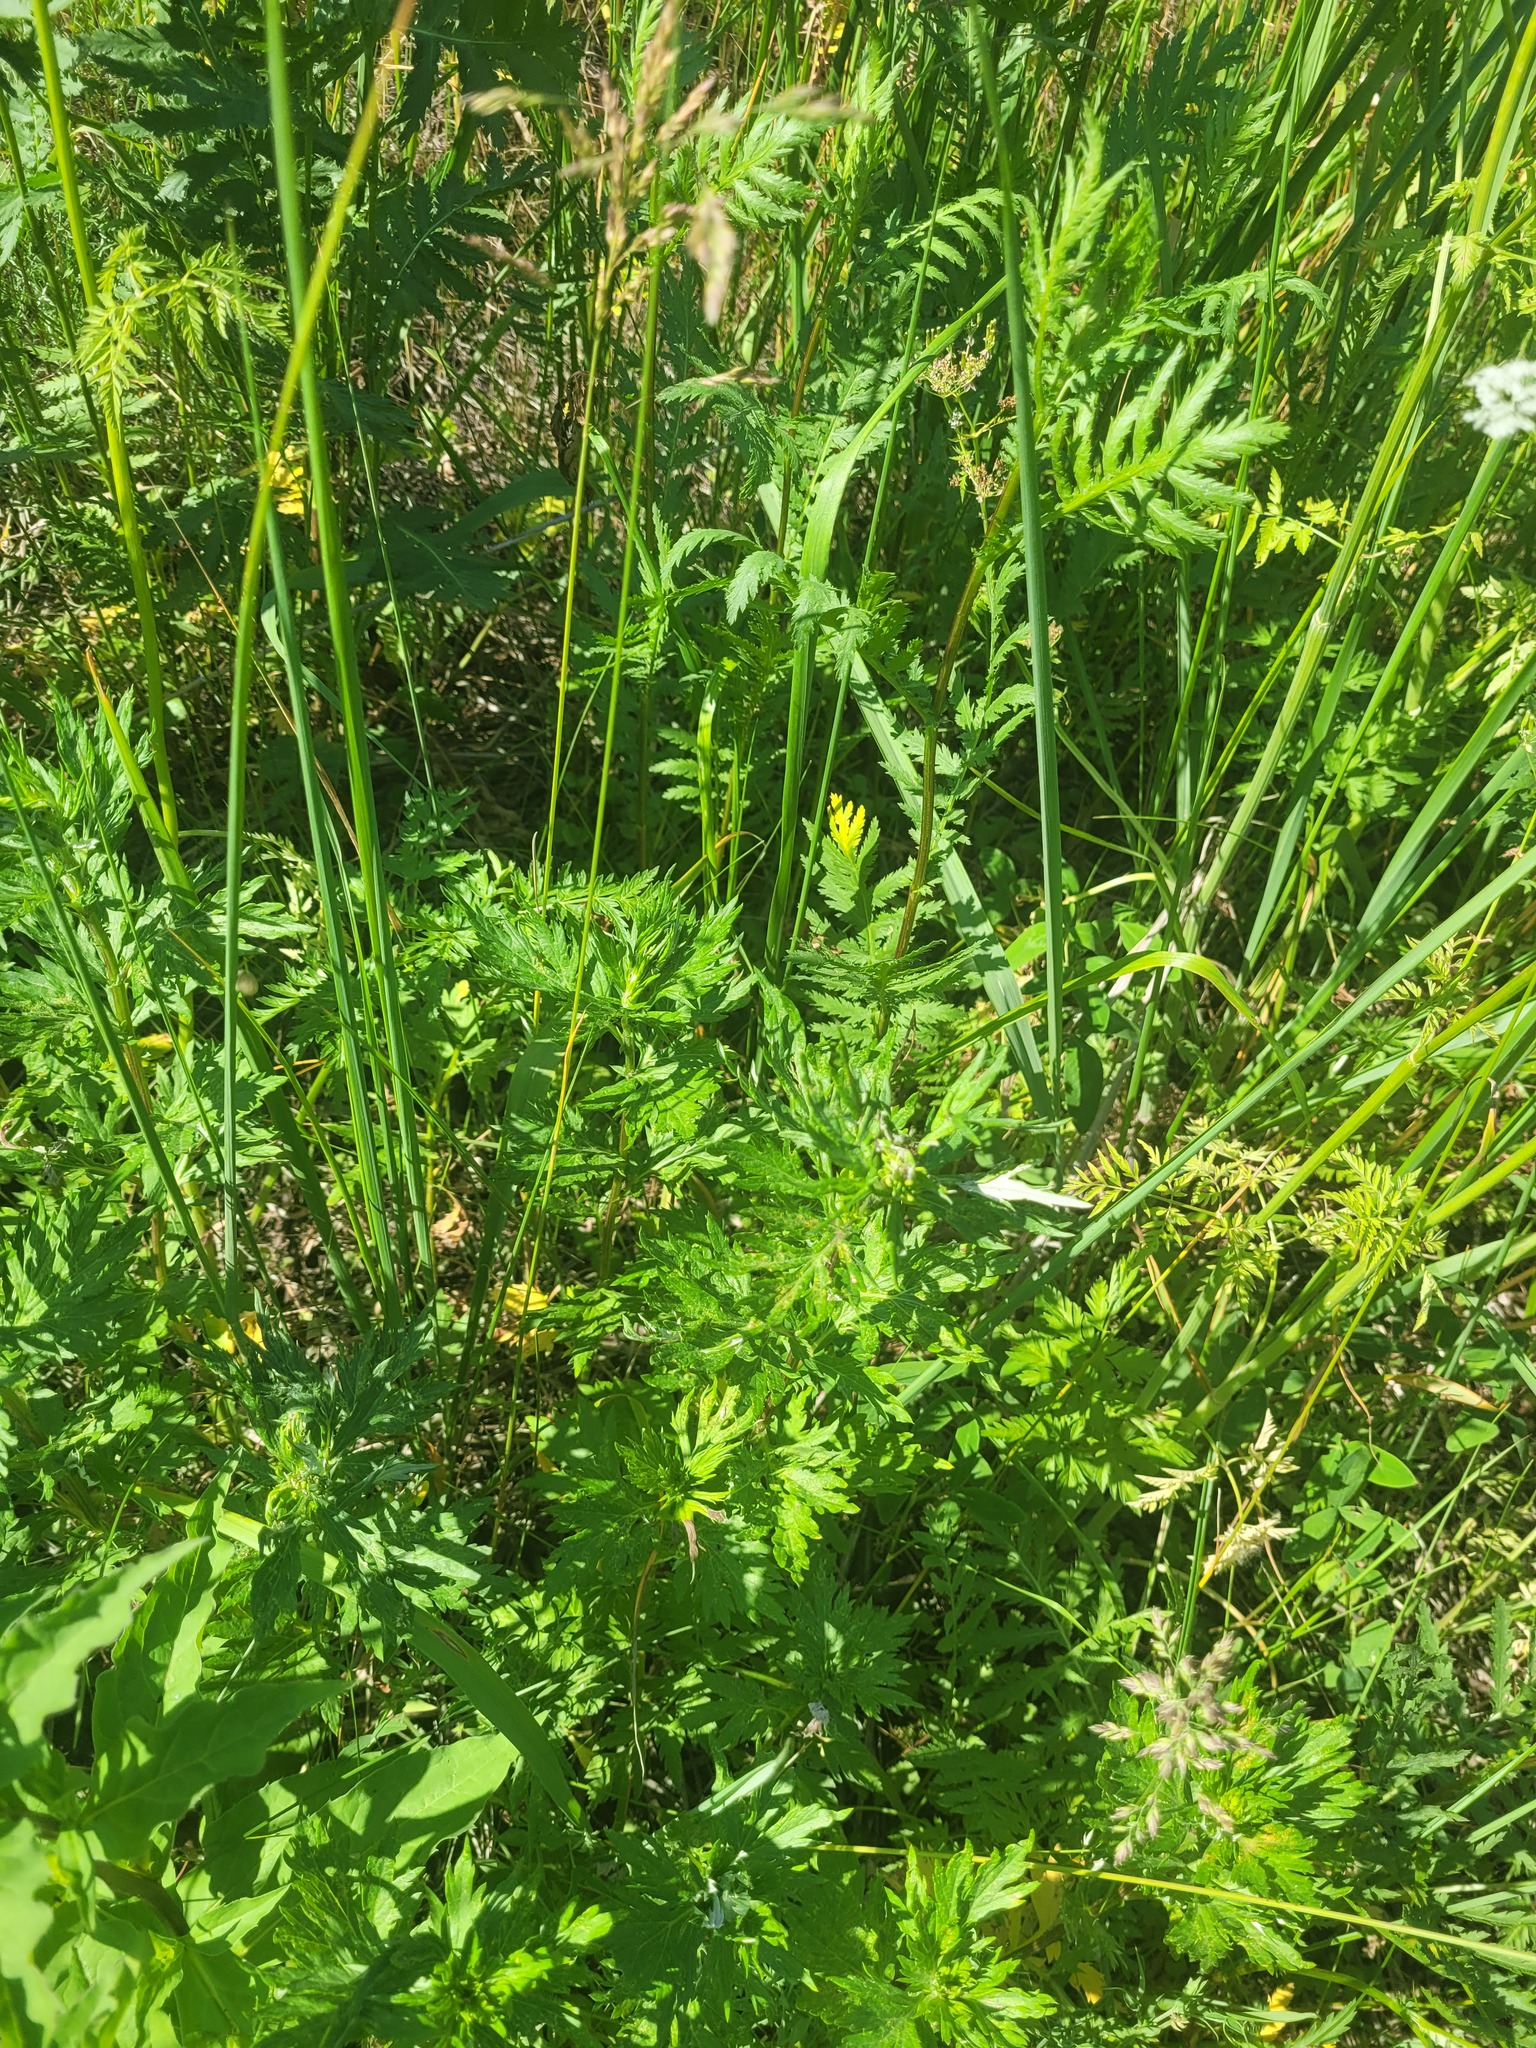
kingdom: Plantae
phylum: Tracheophyta
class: Magnoliopsida
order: Asterales
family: Asteraceae
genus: Artemisia
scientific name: Artemisia vulgaris
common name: Mugwort
